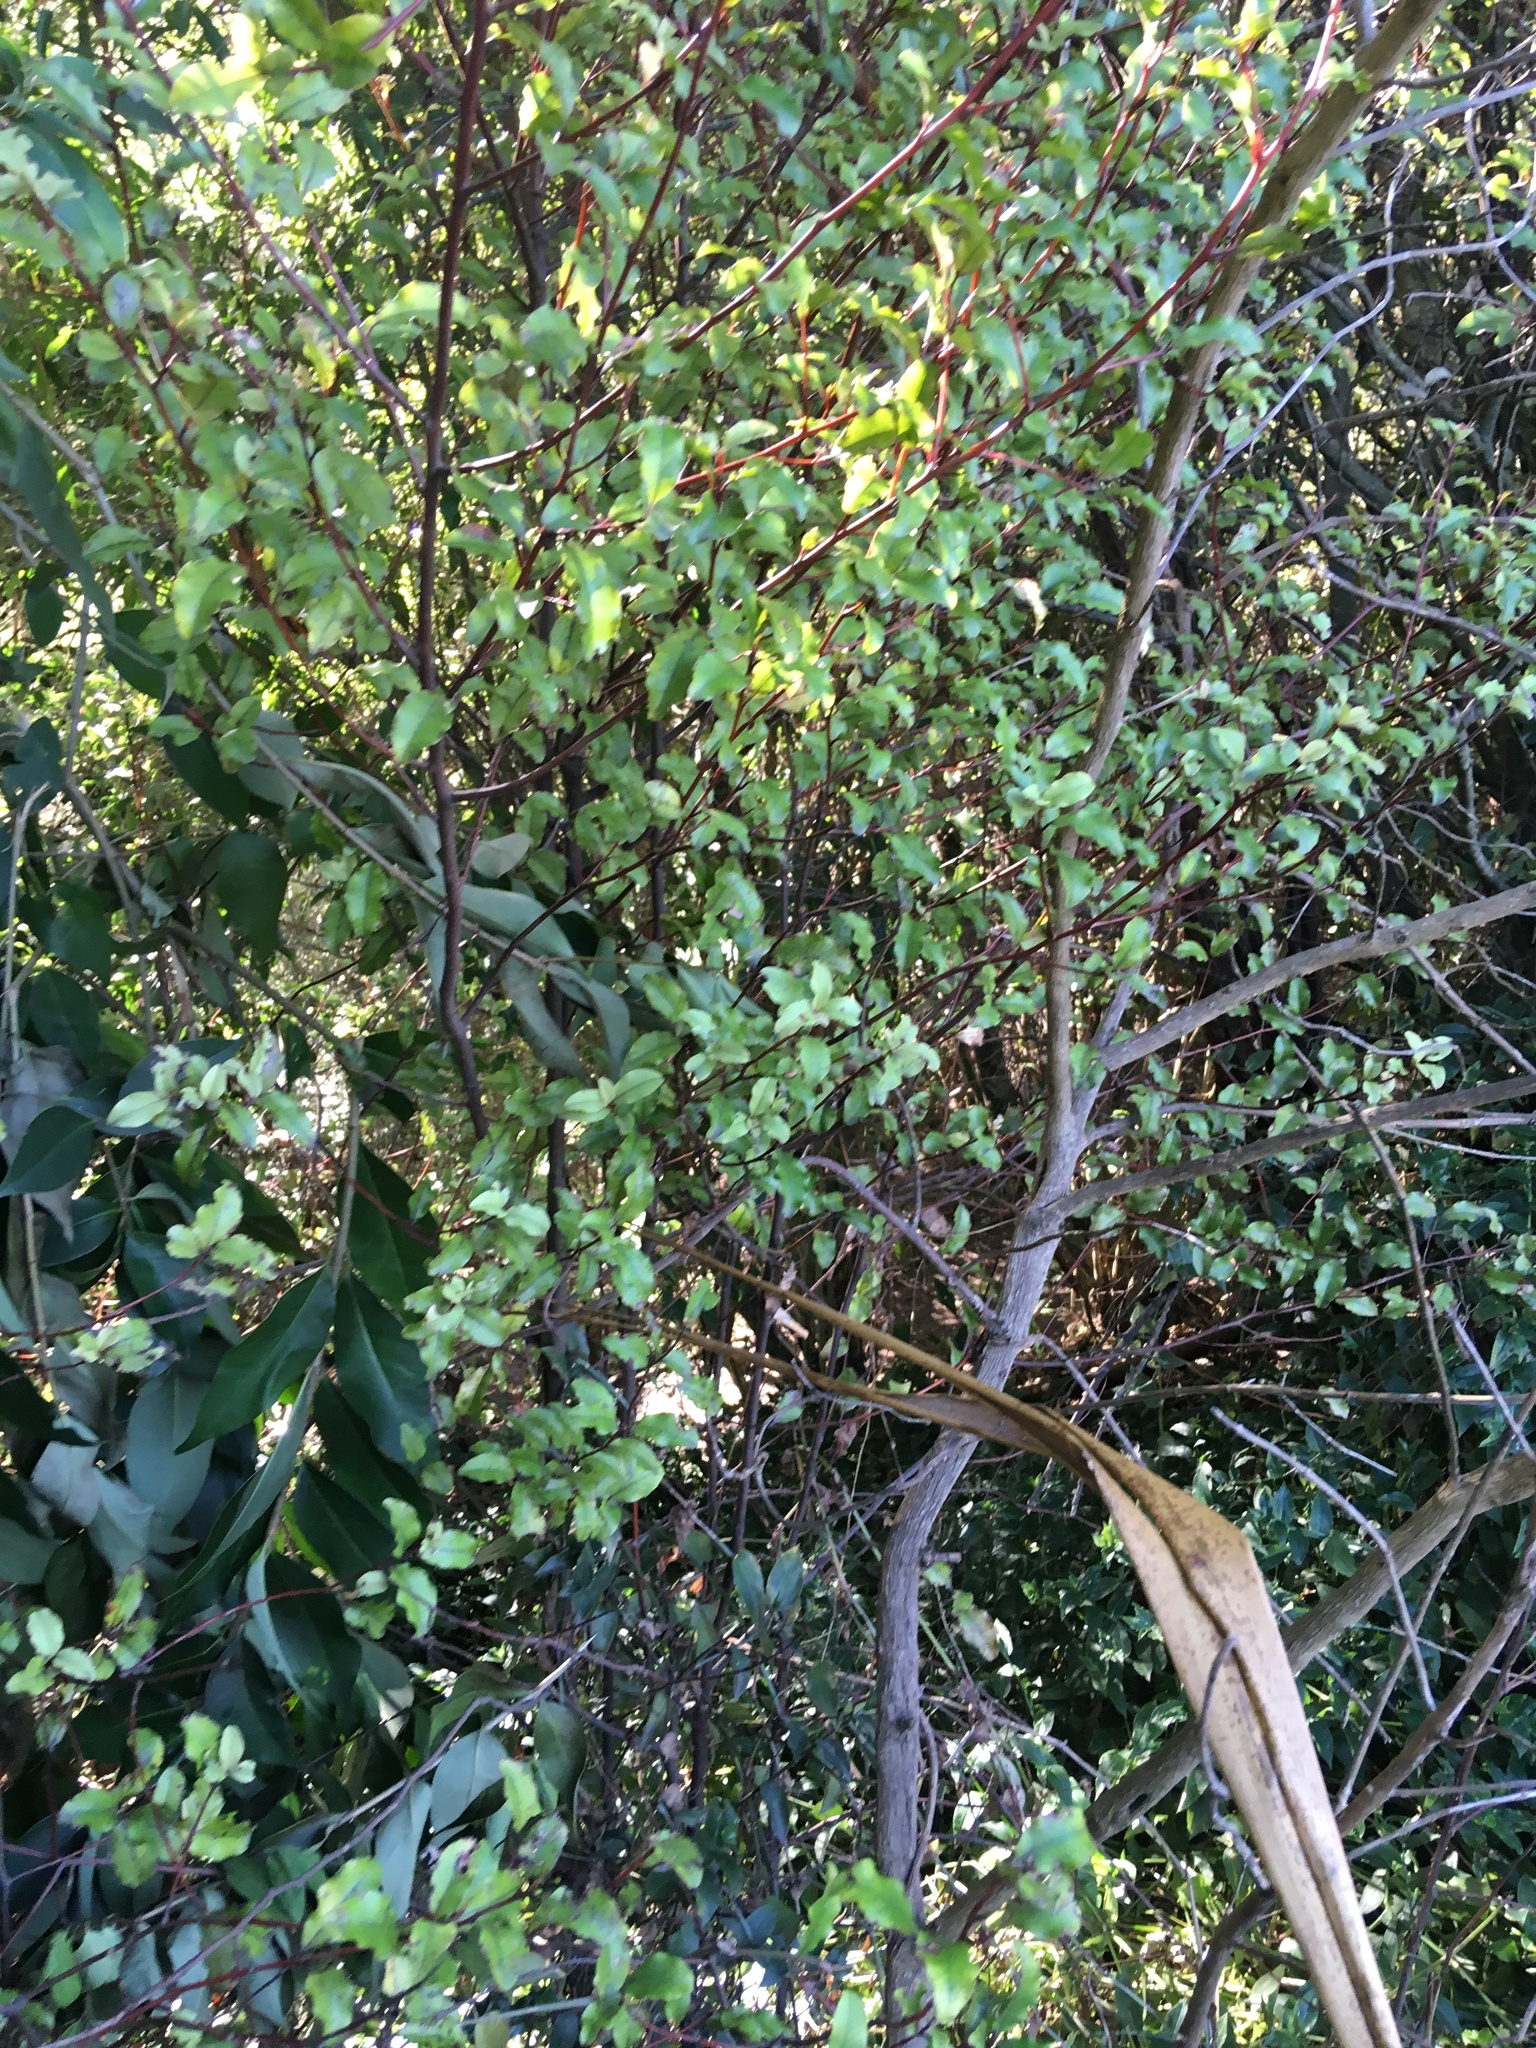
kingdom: Plantae
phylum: Tracheophyta
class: Magnoliopsida
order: Lamiales
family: Oleaceae
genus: Ligustrum
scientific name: Ligustrum lucidum
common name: Glossy privet
